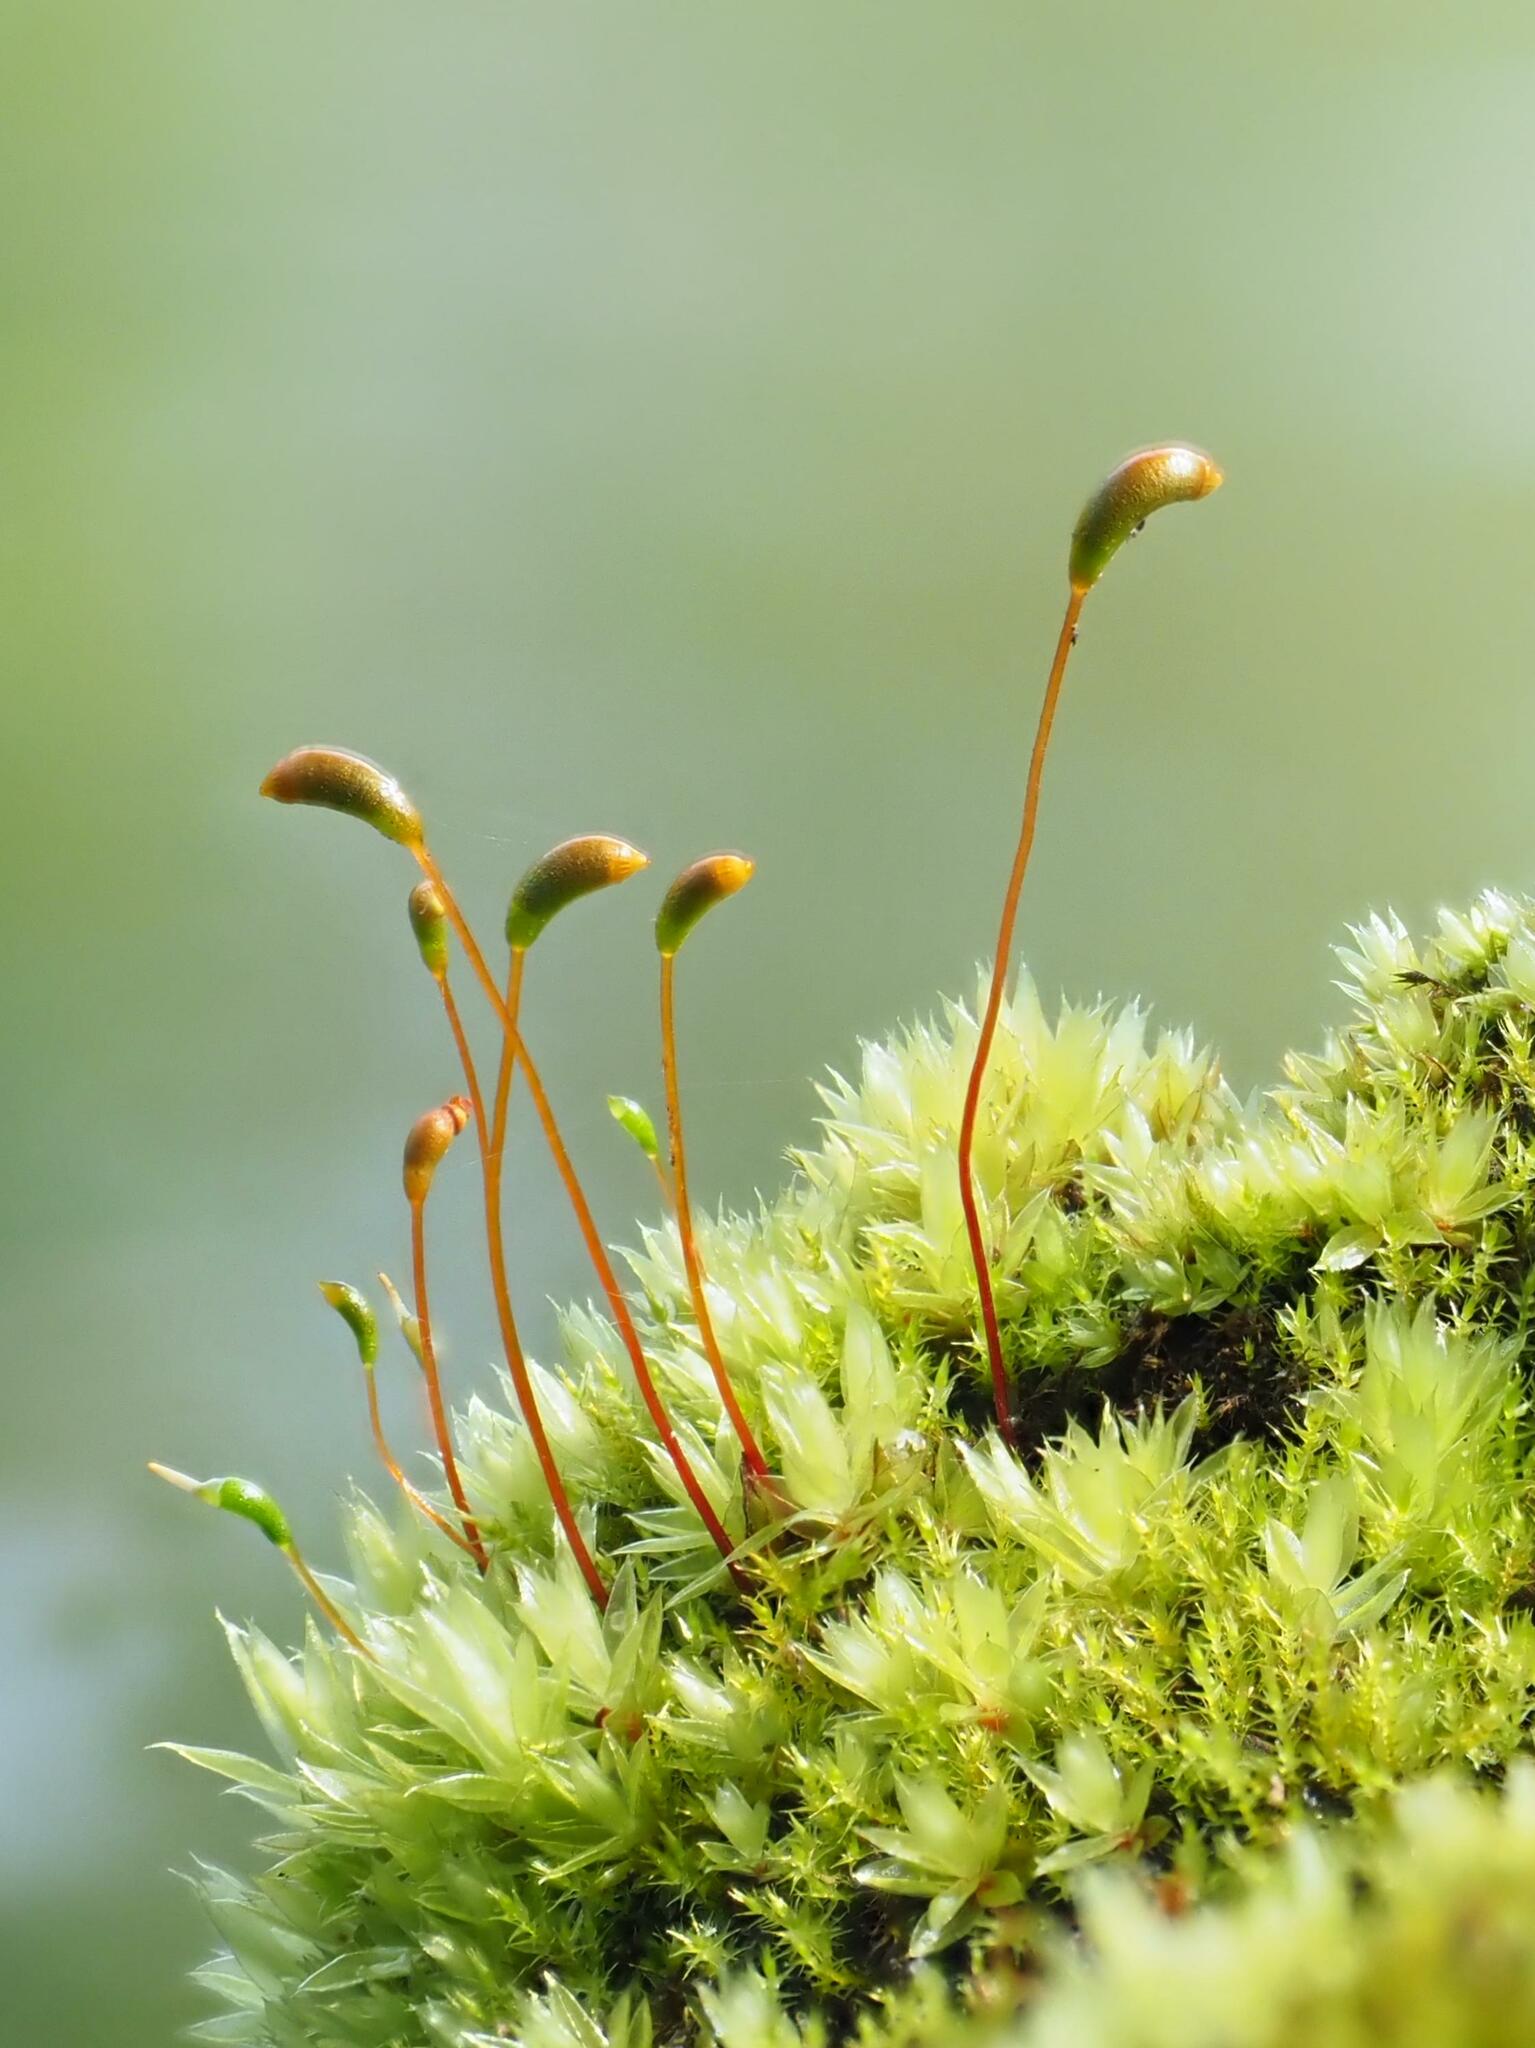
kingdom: Plantae
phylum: Bryophyta
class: Bryopsida
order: Hypnales
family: Amblystegiaceae
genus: Amblystegium
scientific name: Amblystegium serpens
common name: Jurkatzka's feather moss
